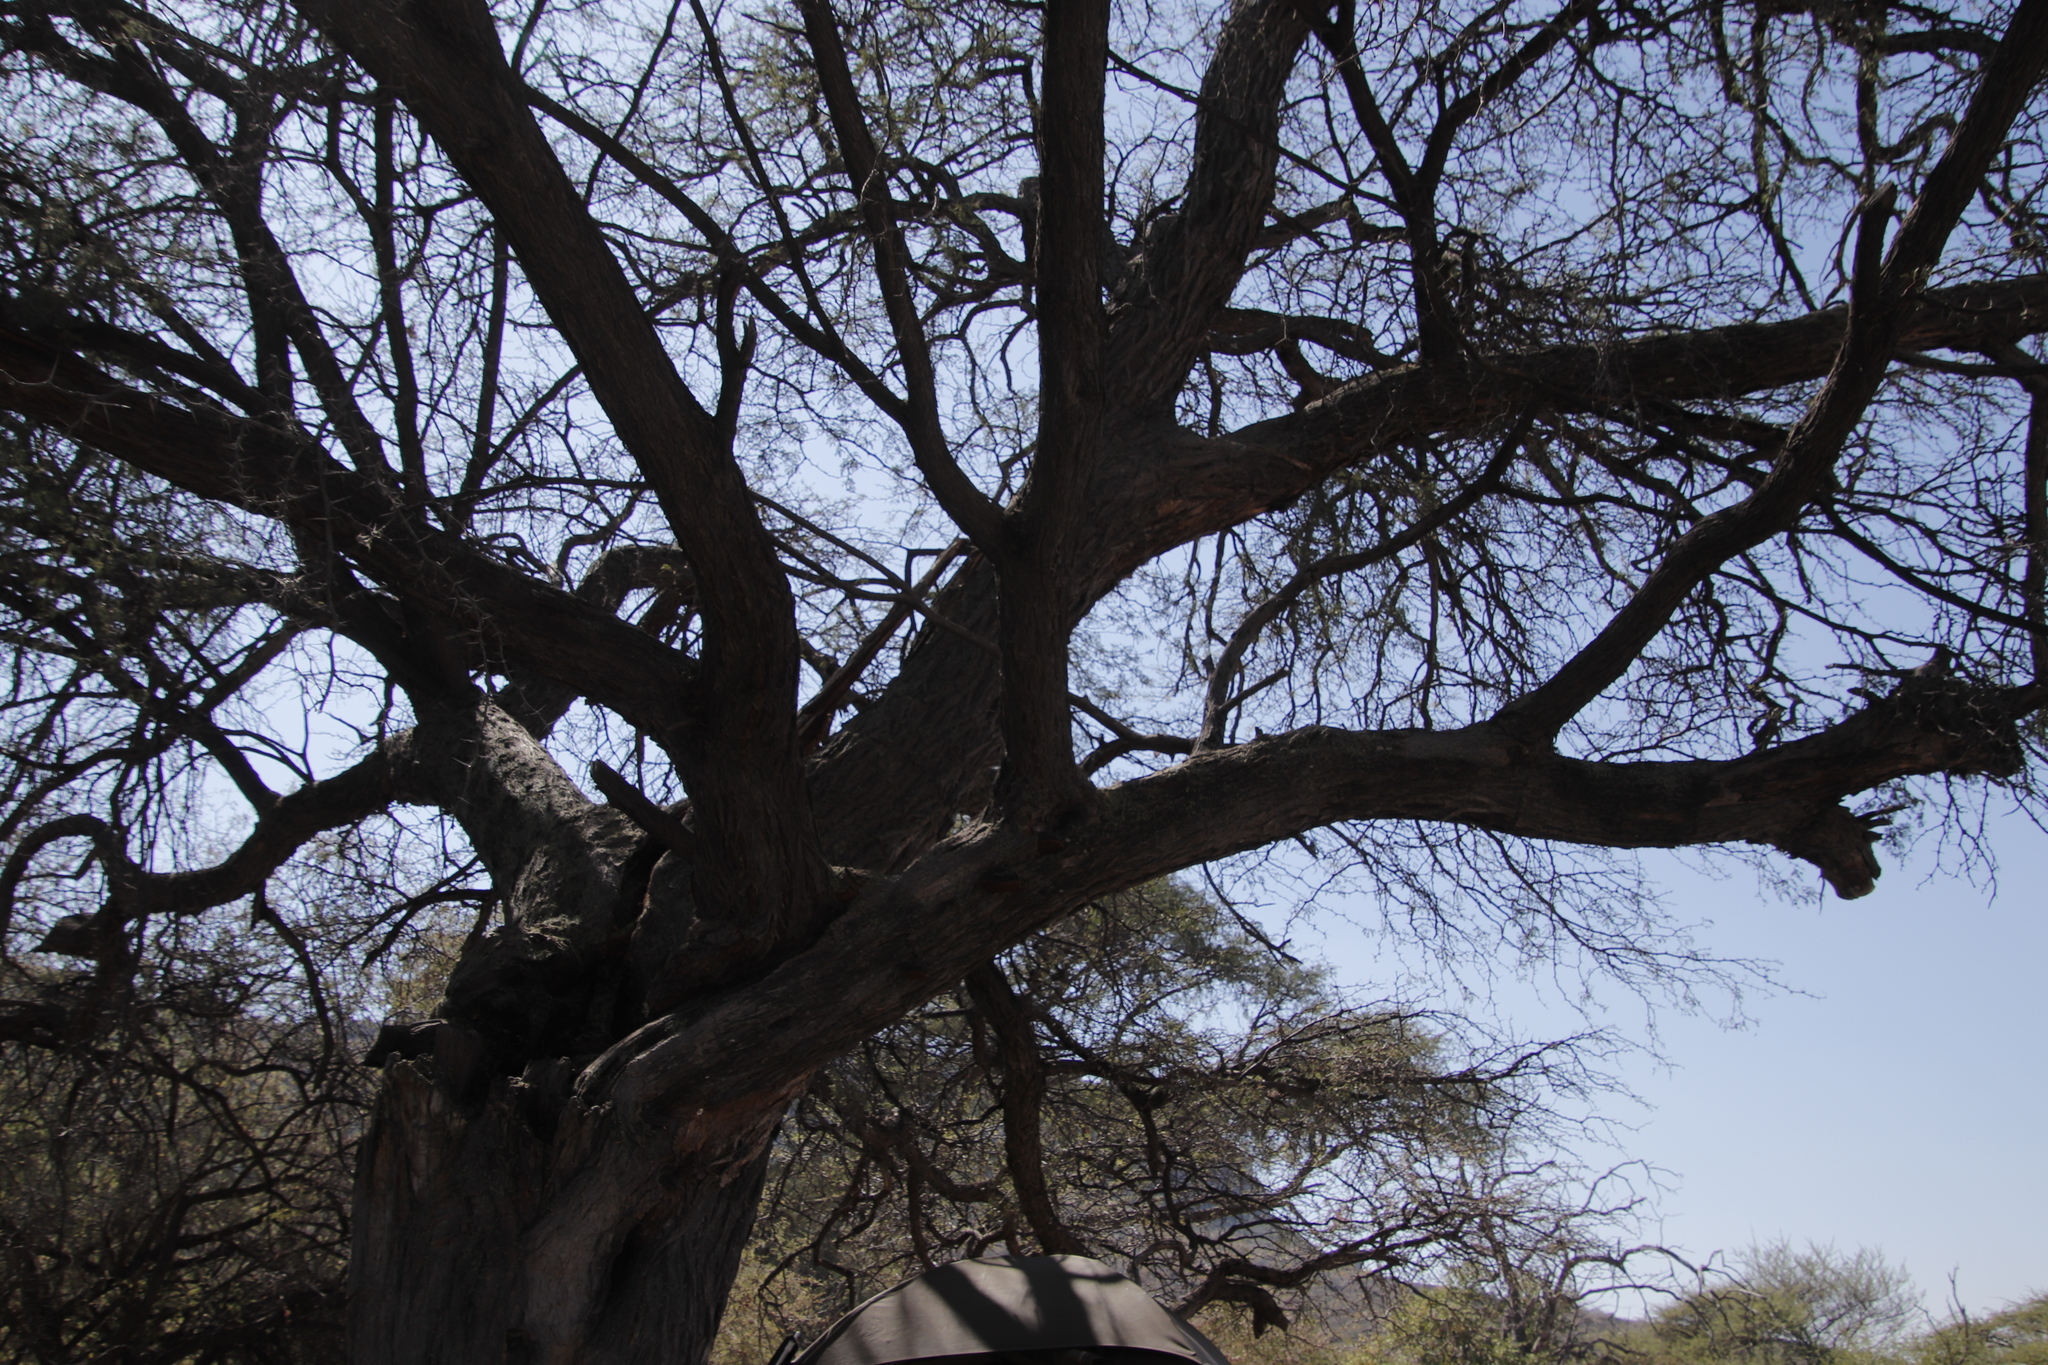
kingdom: Plantae
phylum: Tracheophyta
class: Magnoliopsida
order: Fabales
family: Fabaceae
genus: Vachellia
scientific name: Vachellia erioloba
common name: Camel thorn
